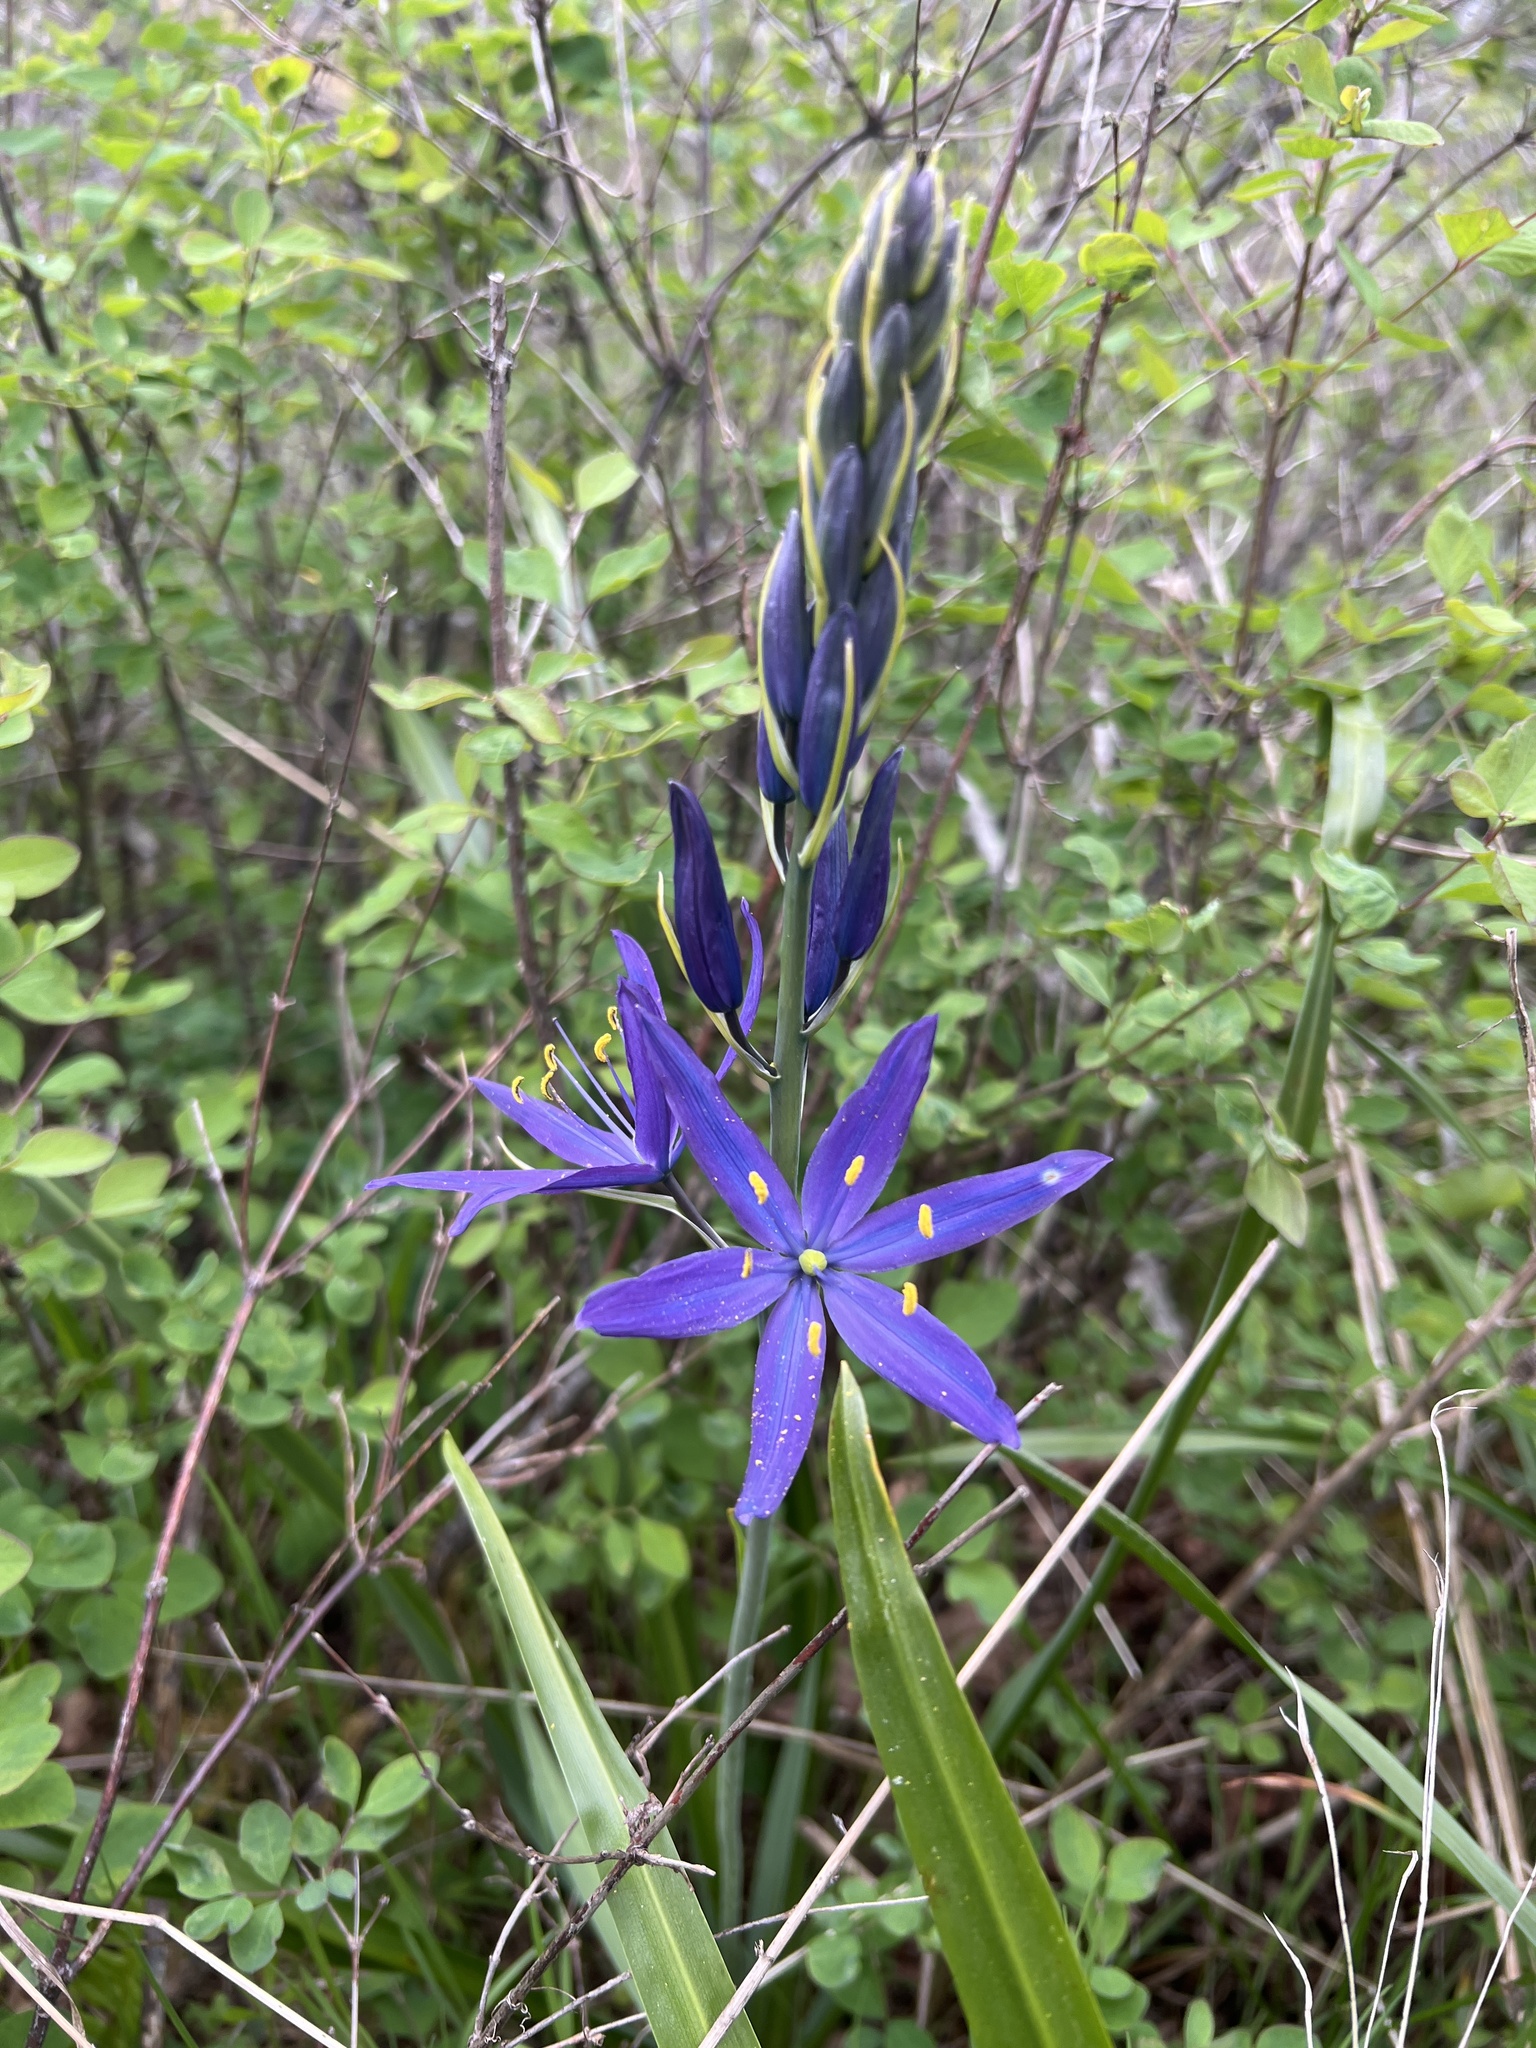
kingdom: Plantae
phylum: Tracheophyta
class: Liliopsida
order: Asparagales
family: Asparagaceae
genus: Camassia
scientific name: Camassia leichtlinii
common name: Leichtlin's camas
